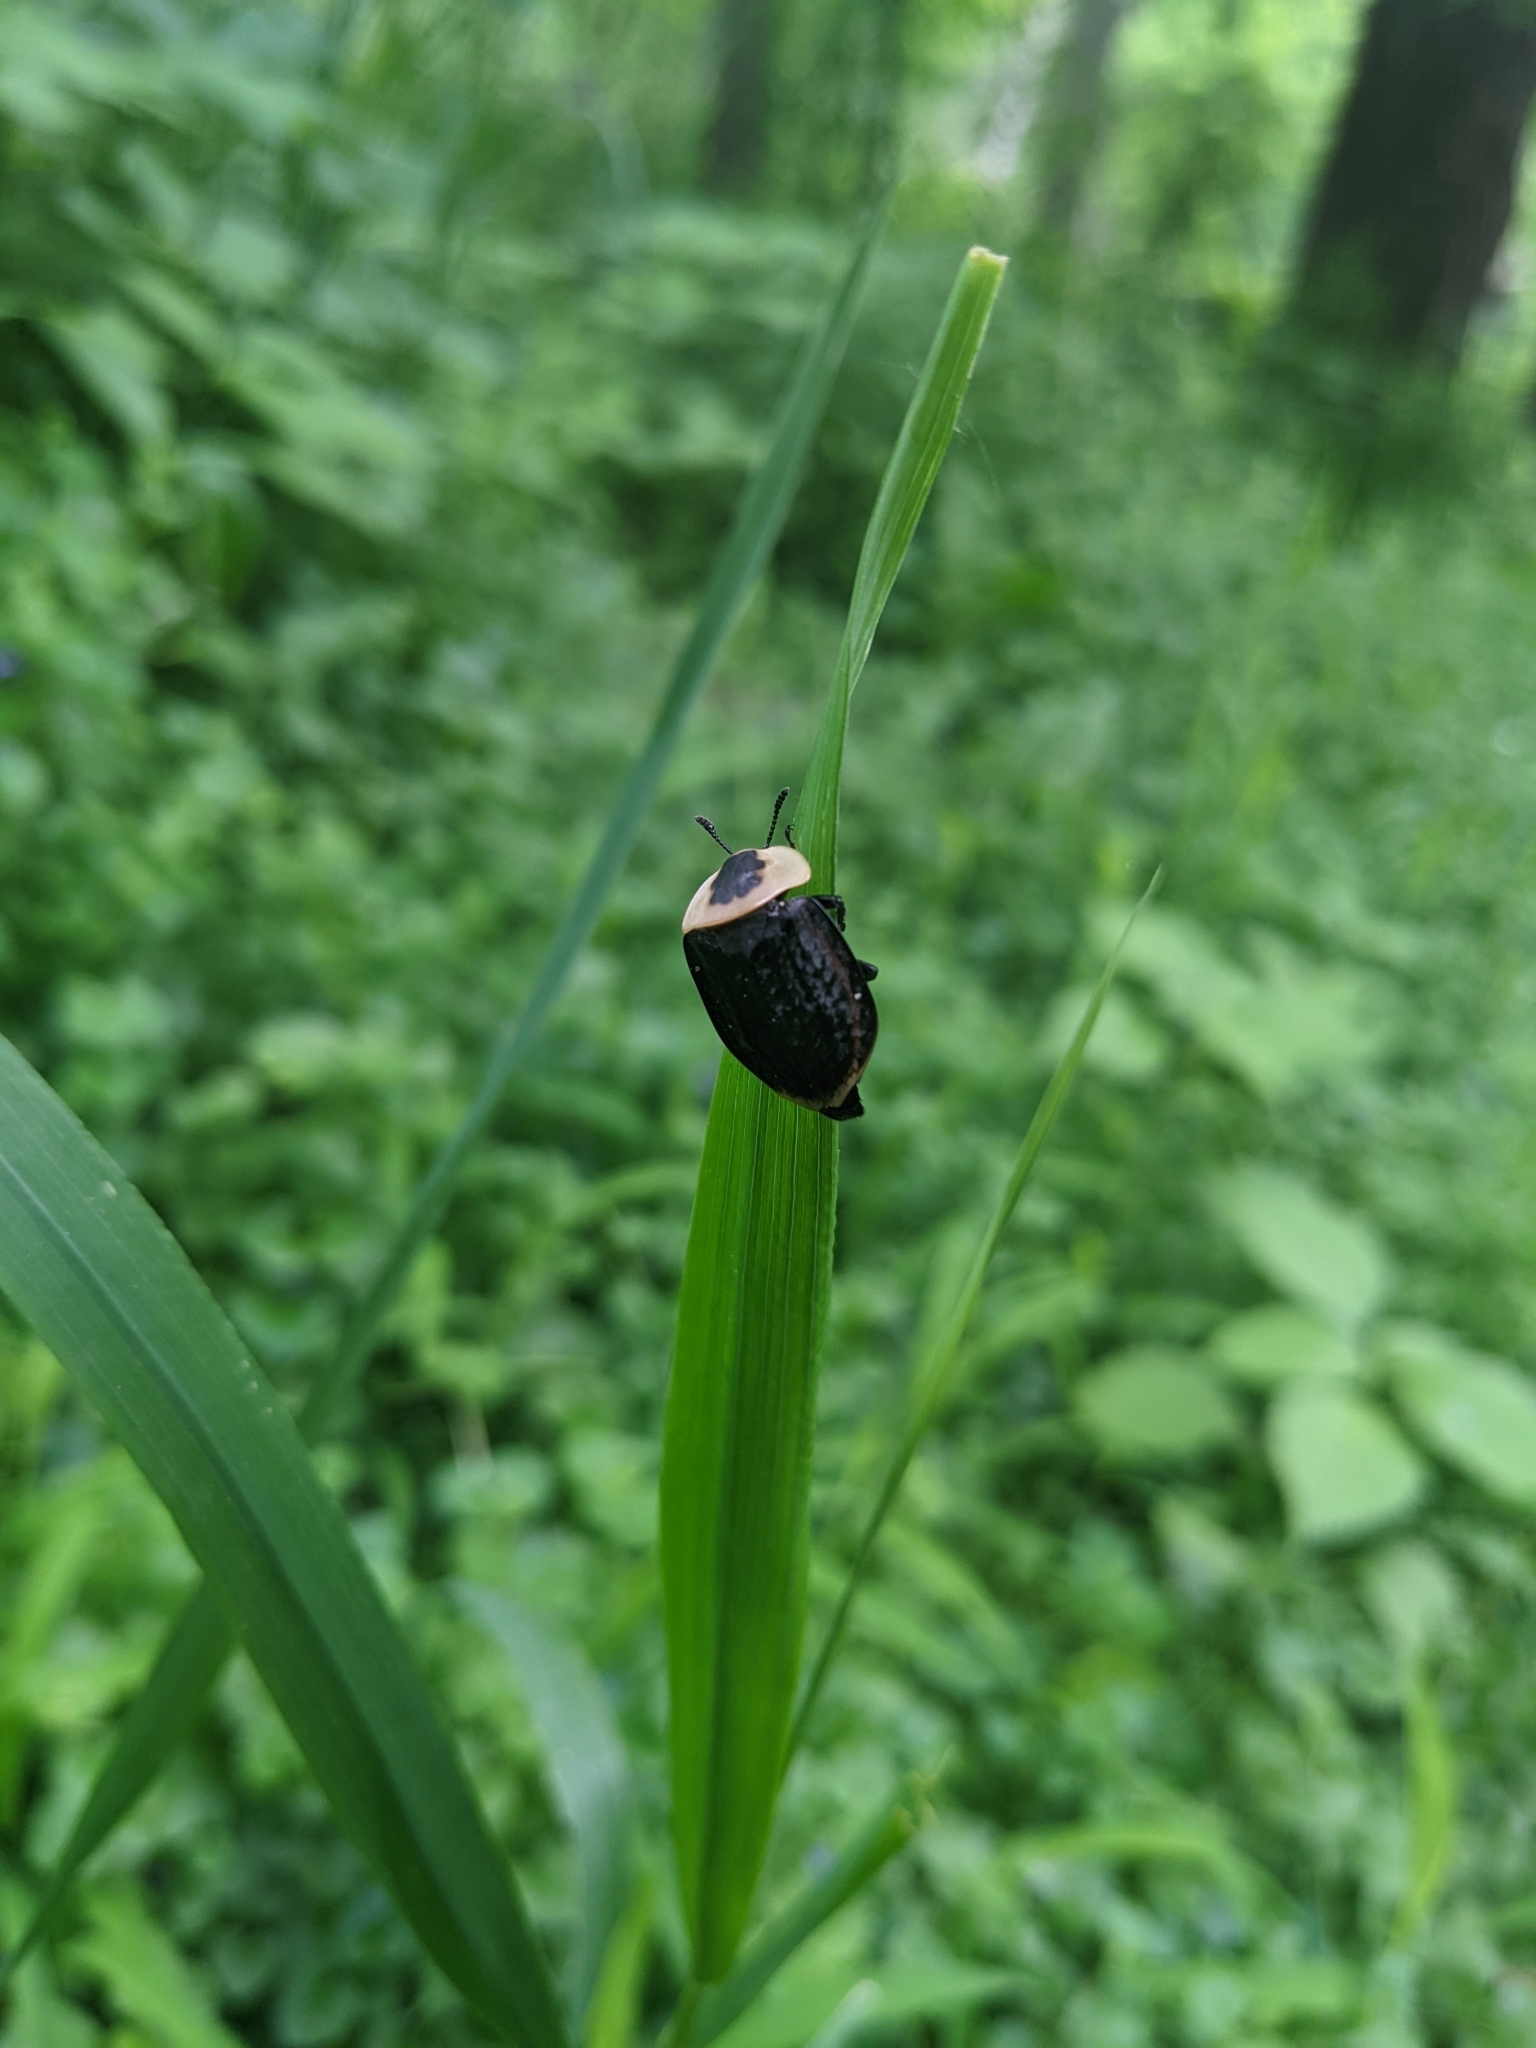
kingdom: Animalia
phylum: Arthropoda
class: Insecta
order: Coleoptera
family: Staphylinidae
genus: Necrophila
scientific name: Necrophila americana
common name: American carrion beetle
